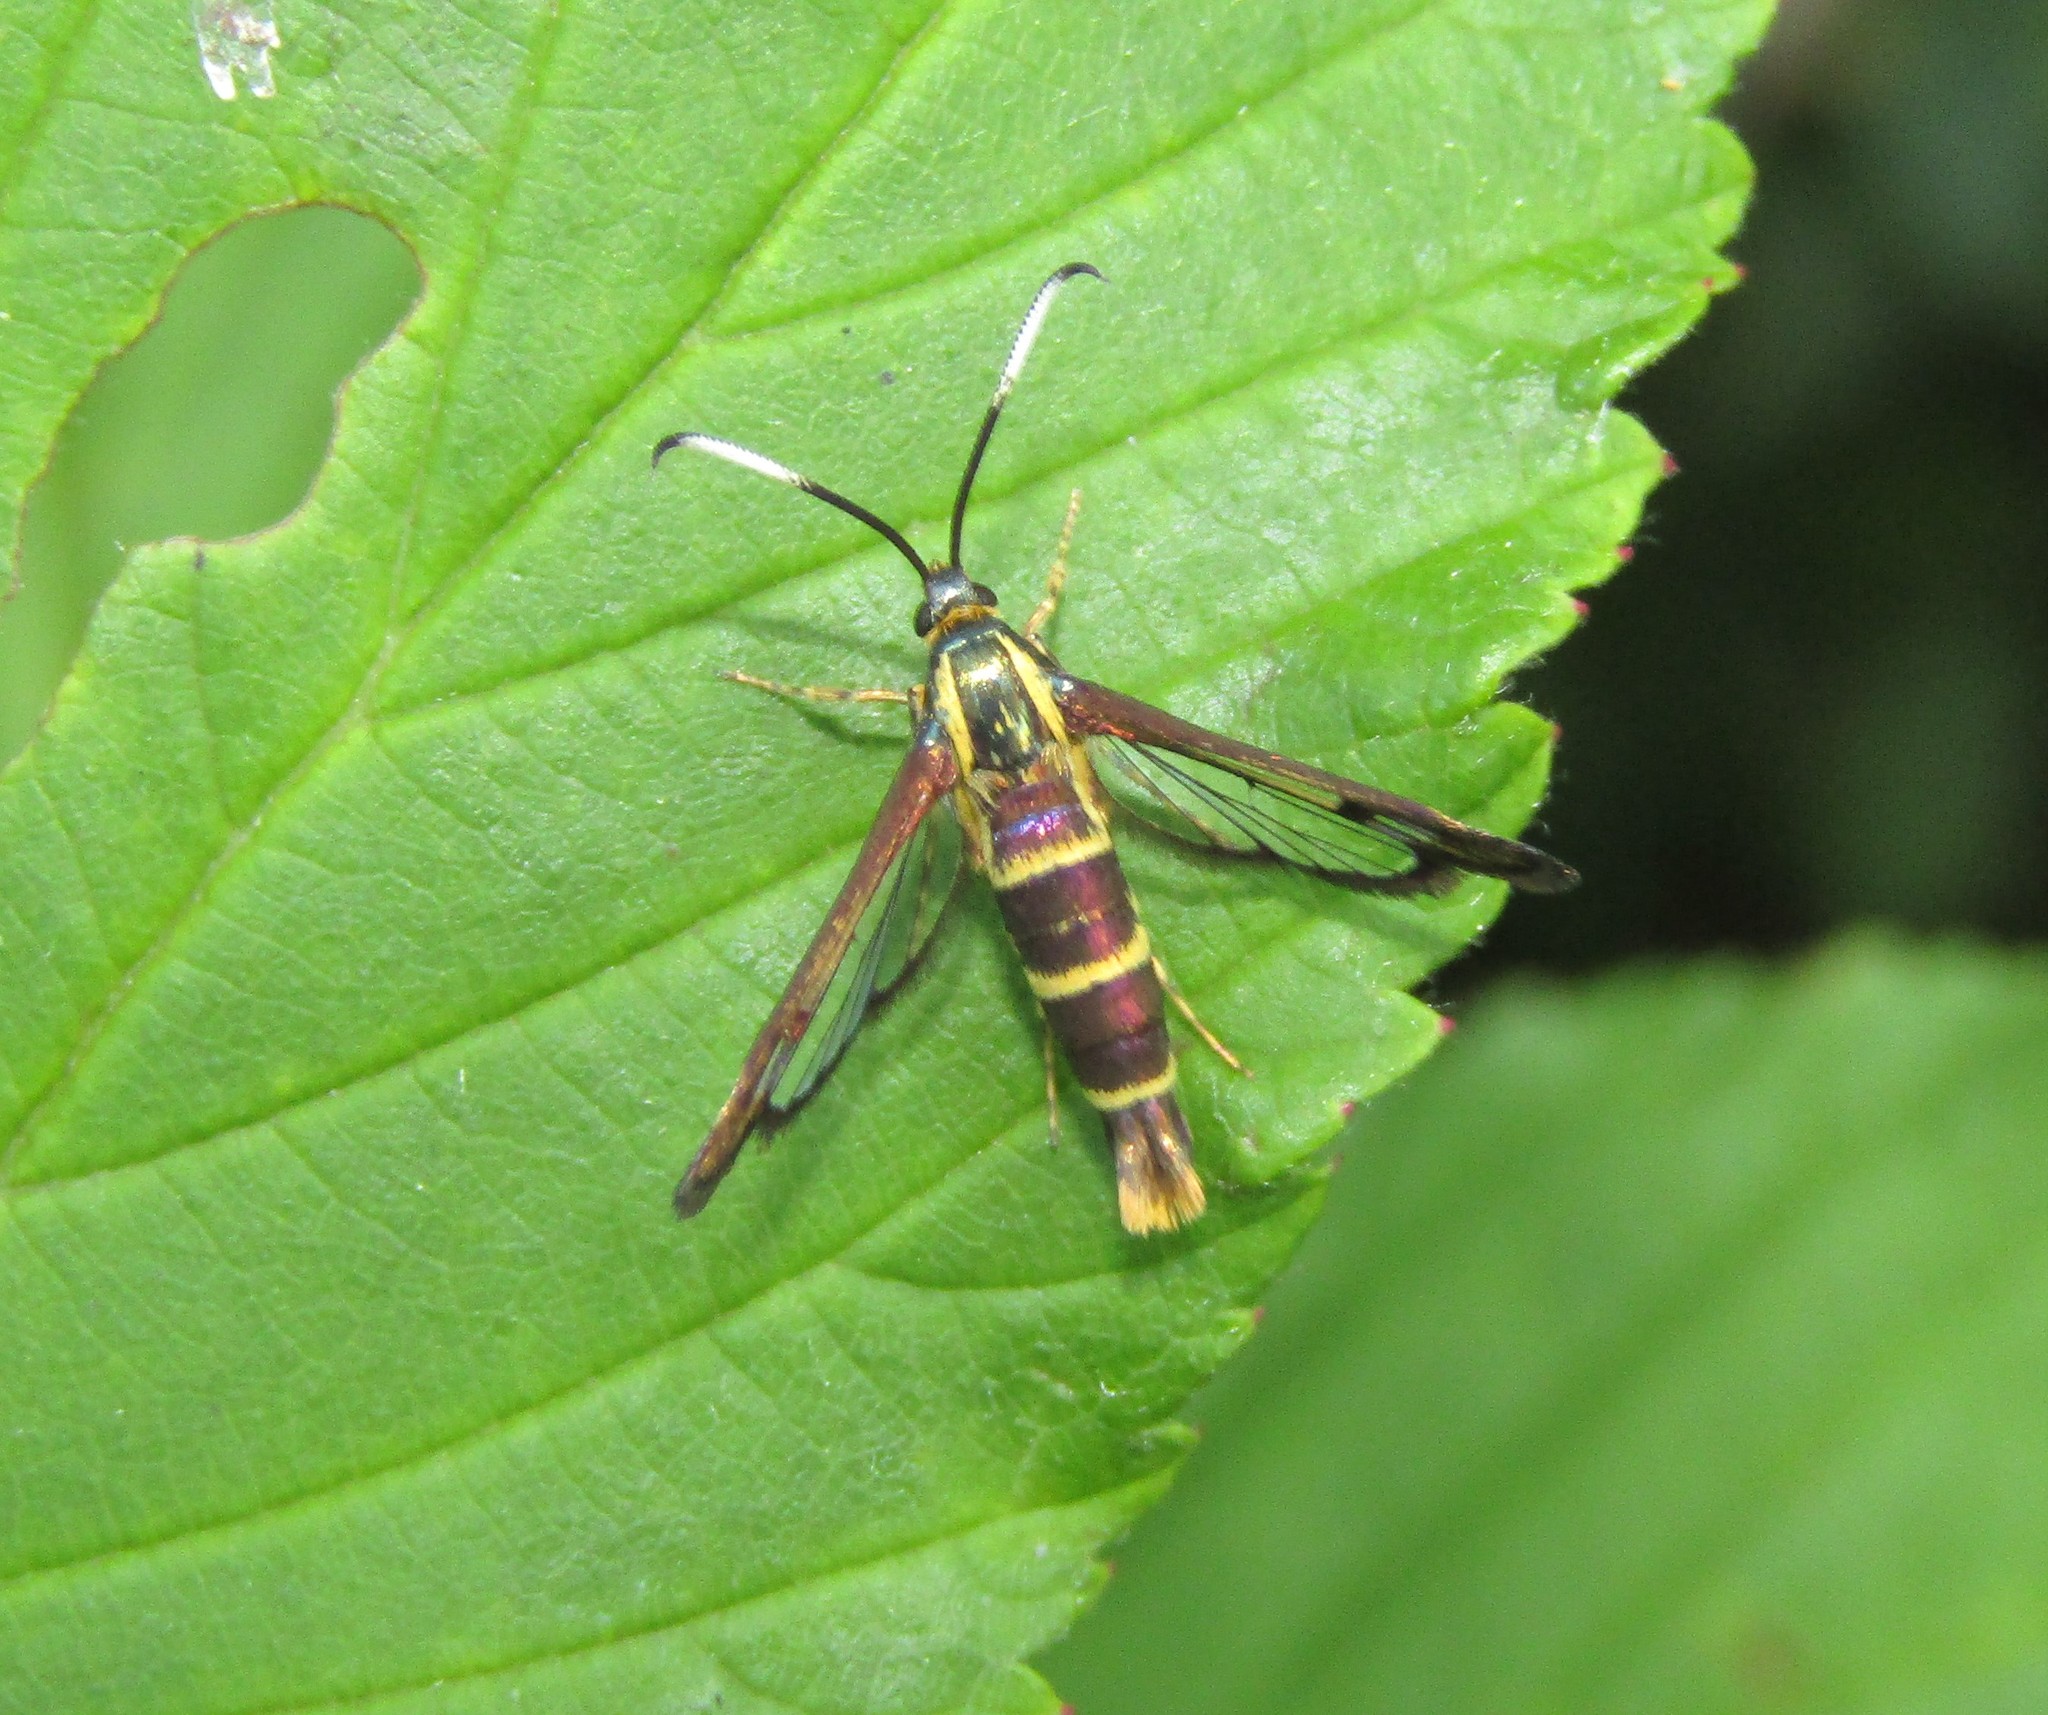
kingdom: Animalia
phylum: Arthropoda
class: Insecta
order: Lepidoptera
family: Sesiidae
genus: Carmenta
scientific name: Carmenta bassiformis
